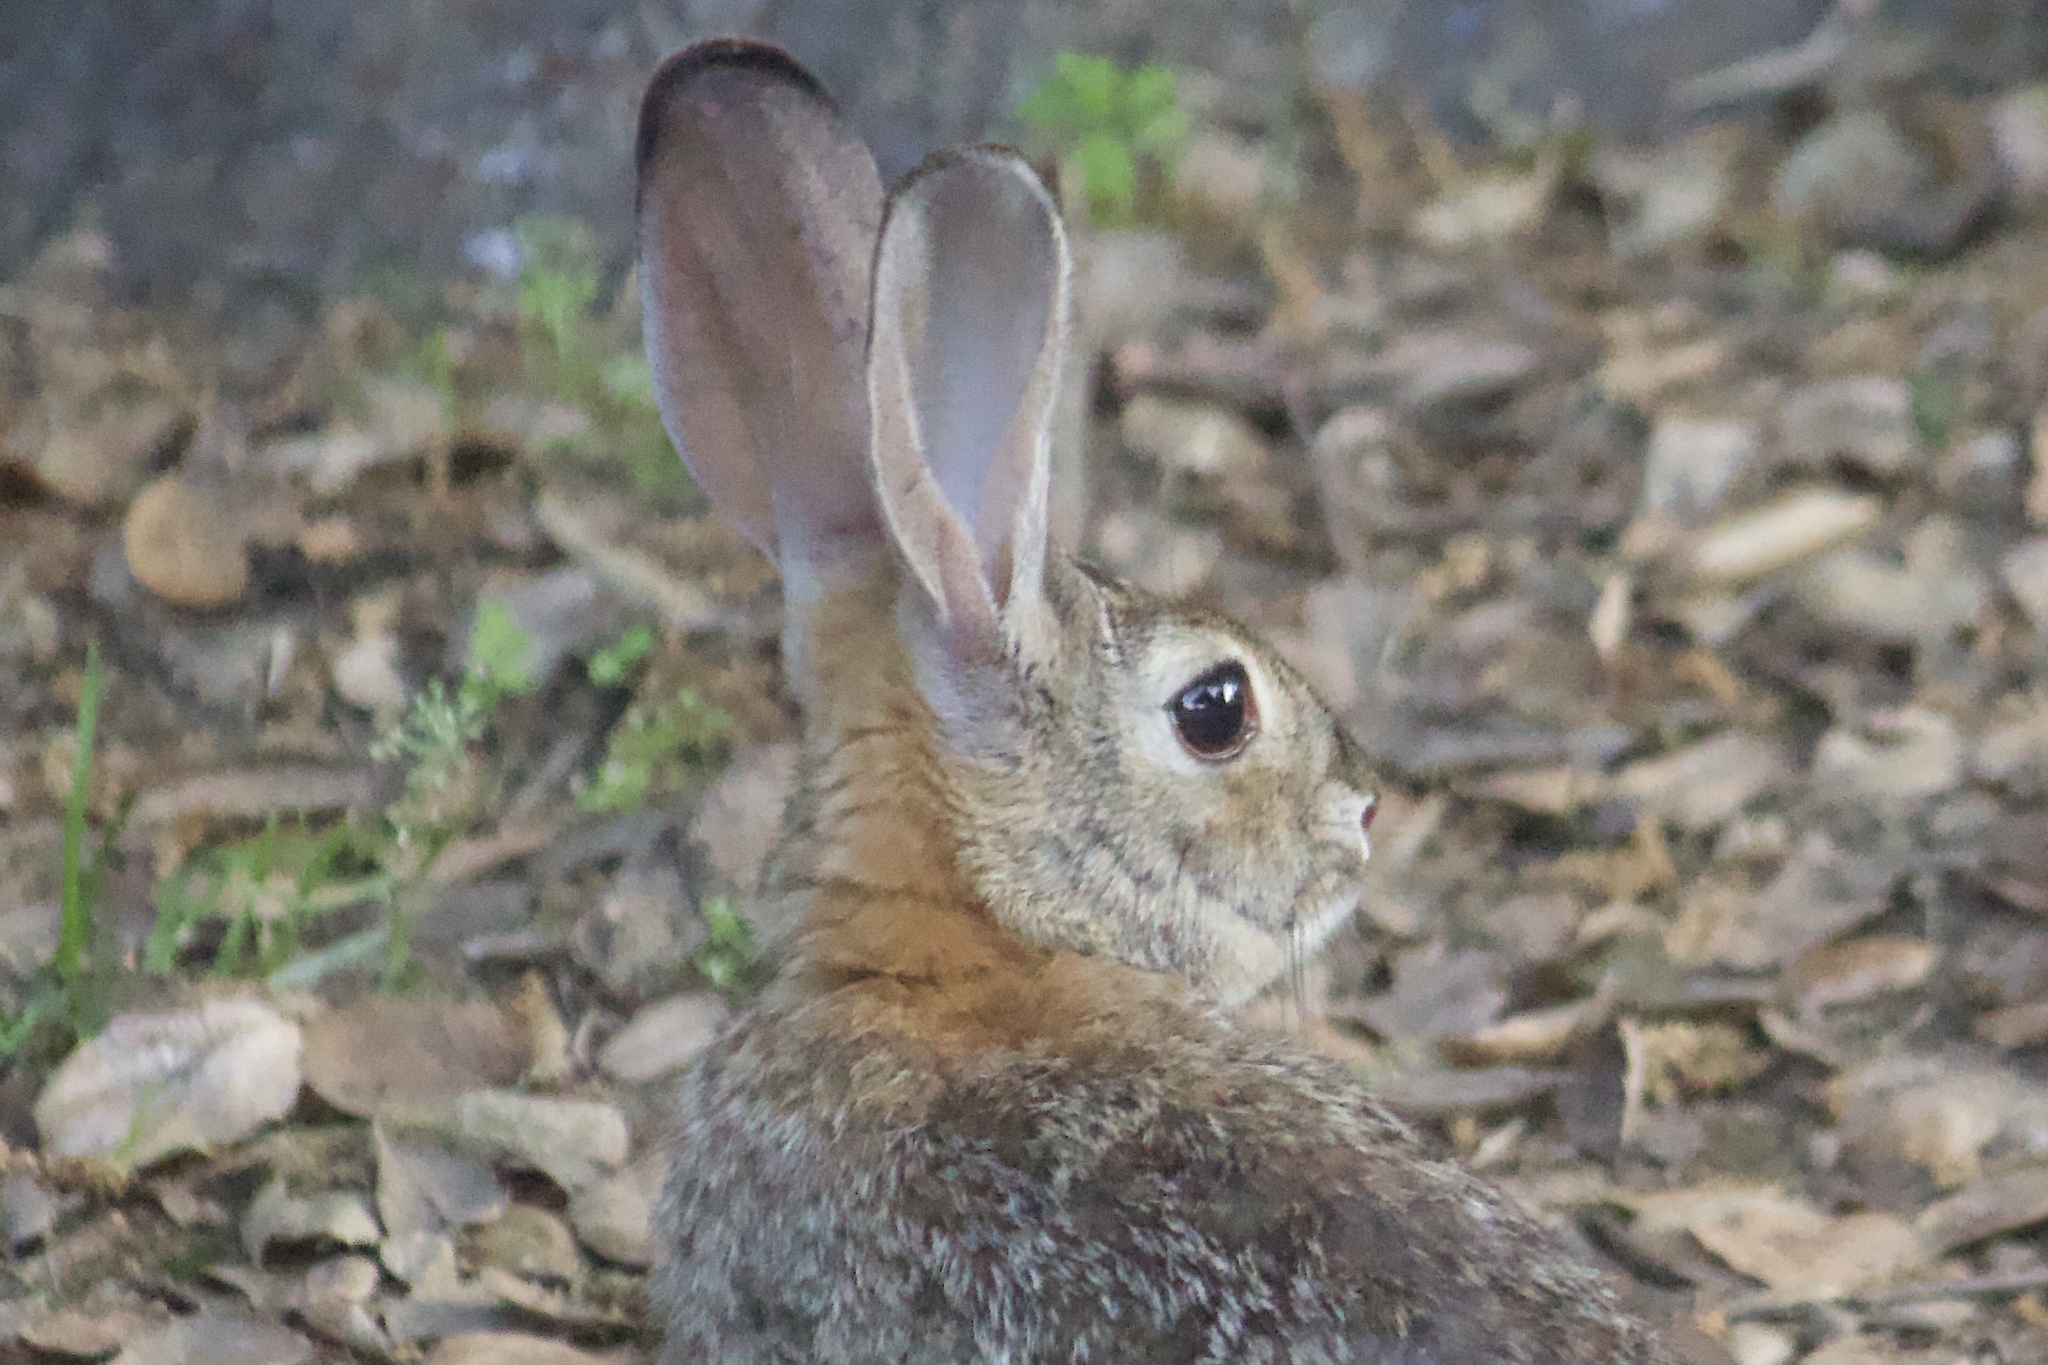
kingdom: Animalia
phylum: Chordata
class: Mammalia
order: Lagomorpha
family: Leporidae
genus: Sylvilagus
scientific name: Sylvilagus audubonii
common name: Desert cottontail
